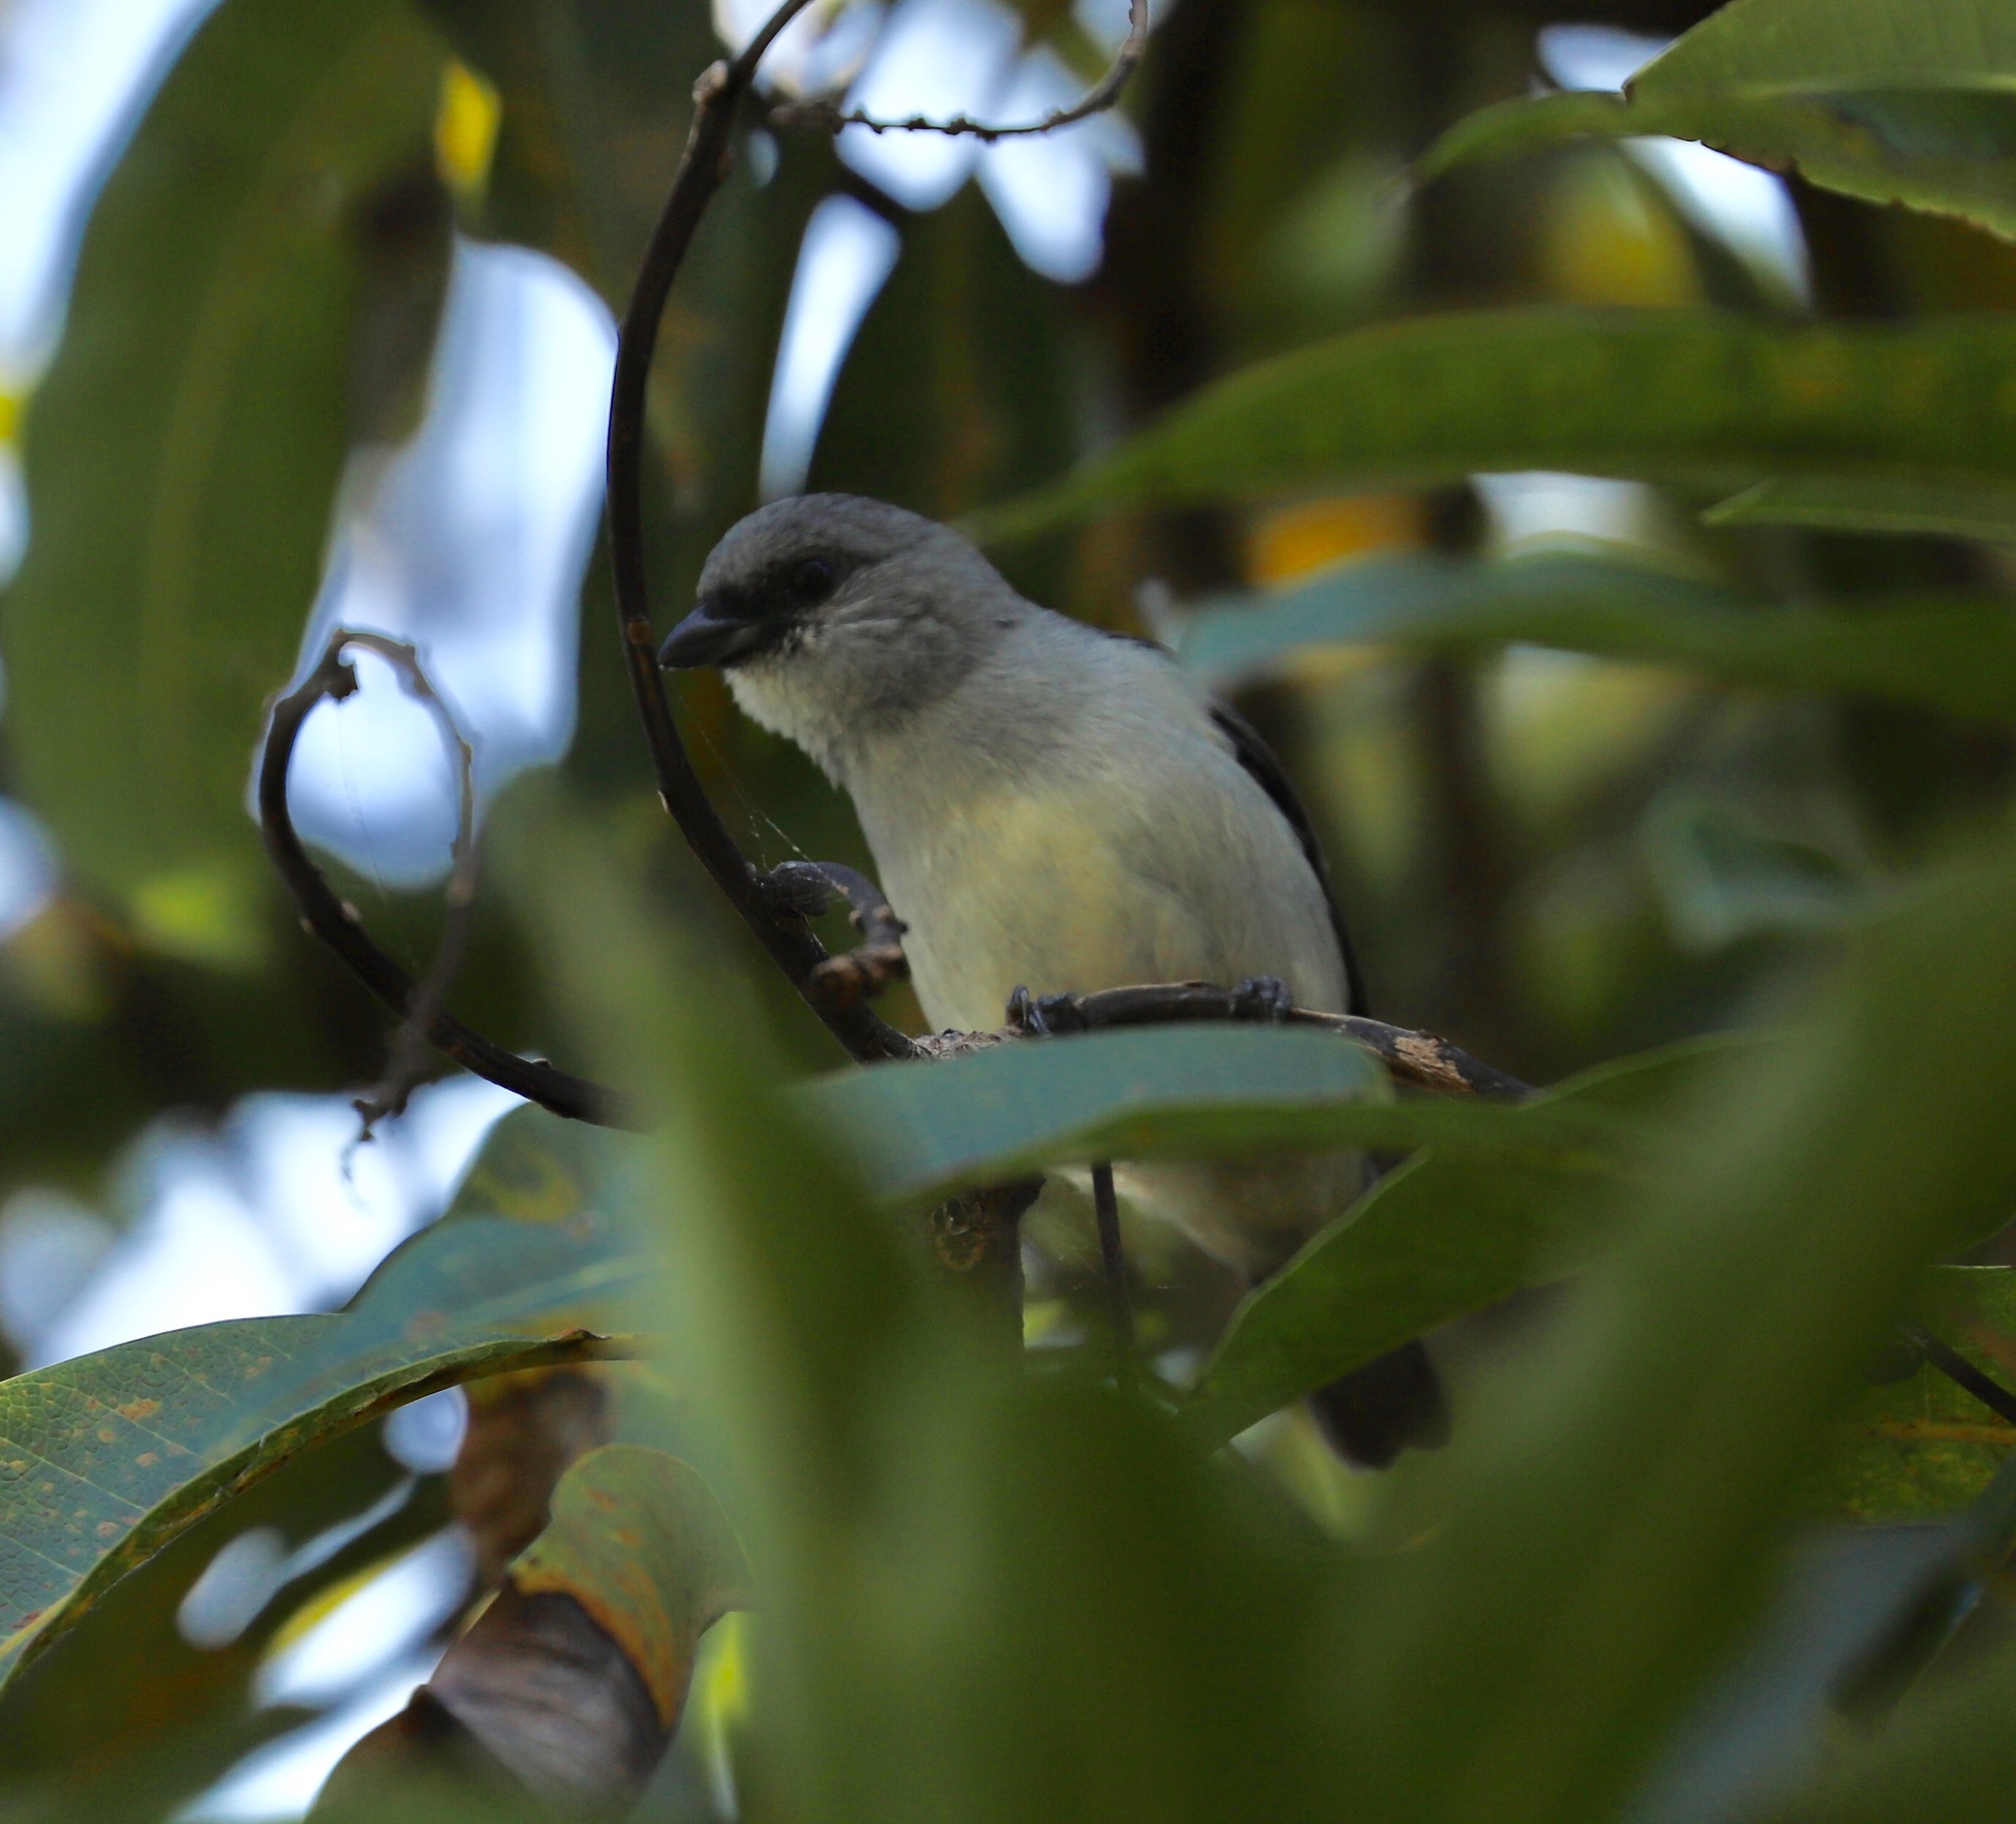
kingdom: Animalia
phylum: Chordata
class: Aves
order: Passeriformes
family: Thraupidae
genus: Tangara
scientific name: Tangara inornata
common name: Plain-colored tanager
